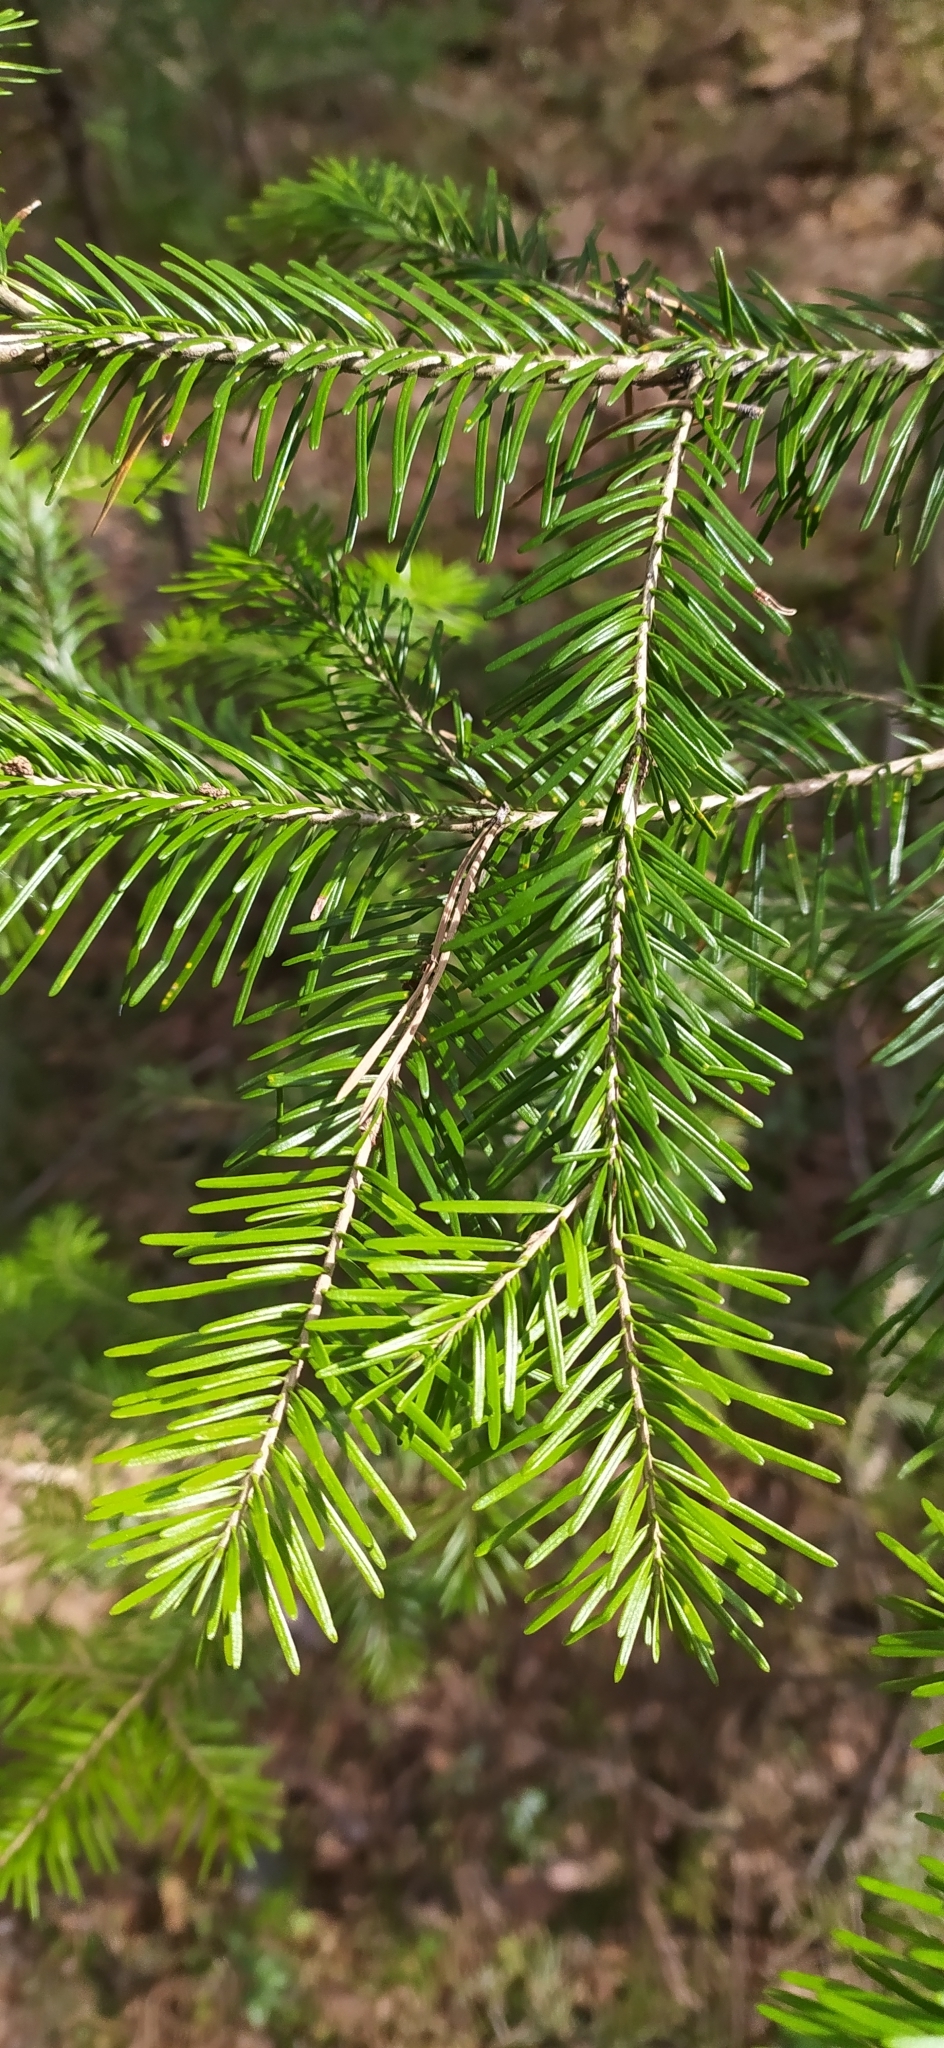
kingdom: Plantae
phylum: Tracheophyta
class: Pinopsida
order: Pinales
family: Pinaceae
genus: Abies
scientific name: Abies sibirica
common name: Siberian fir
